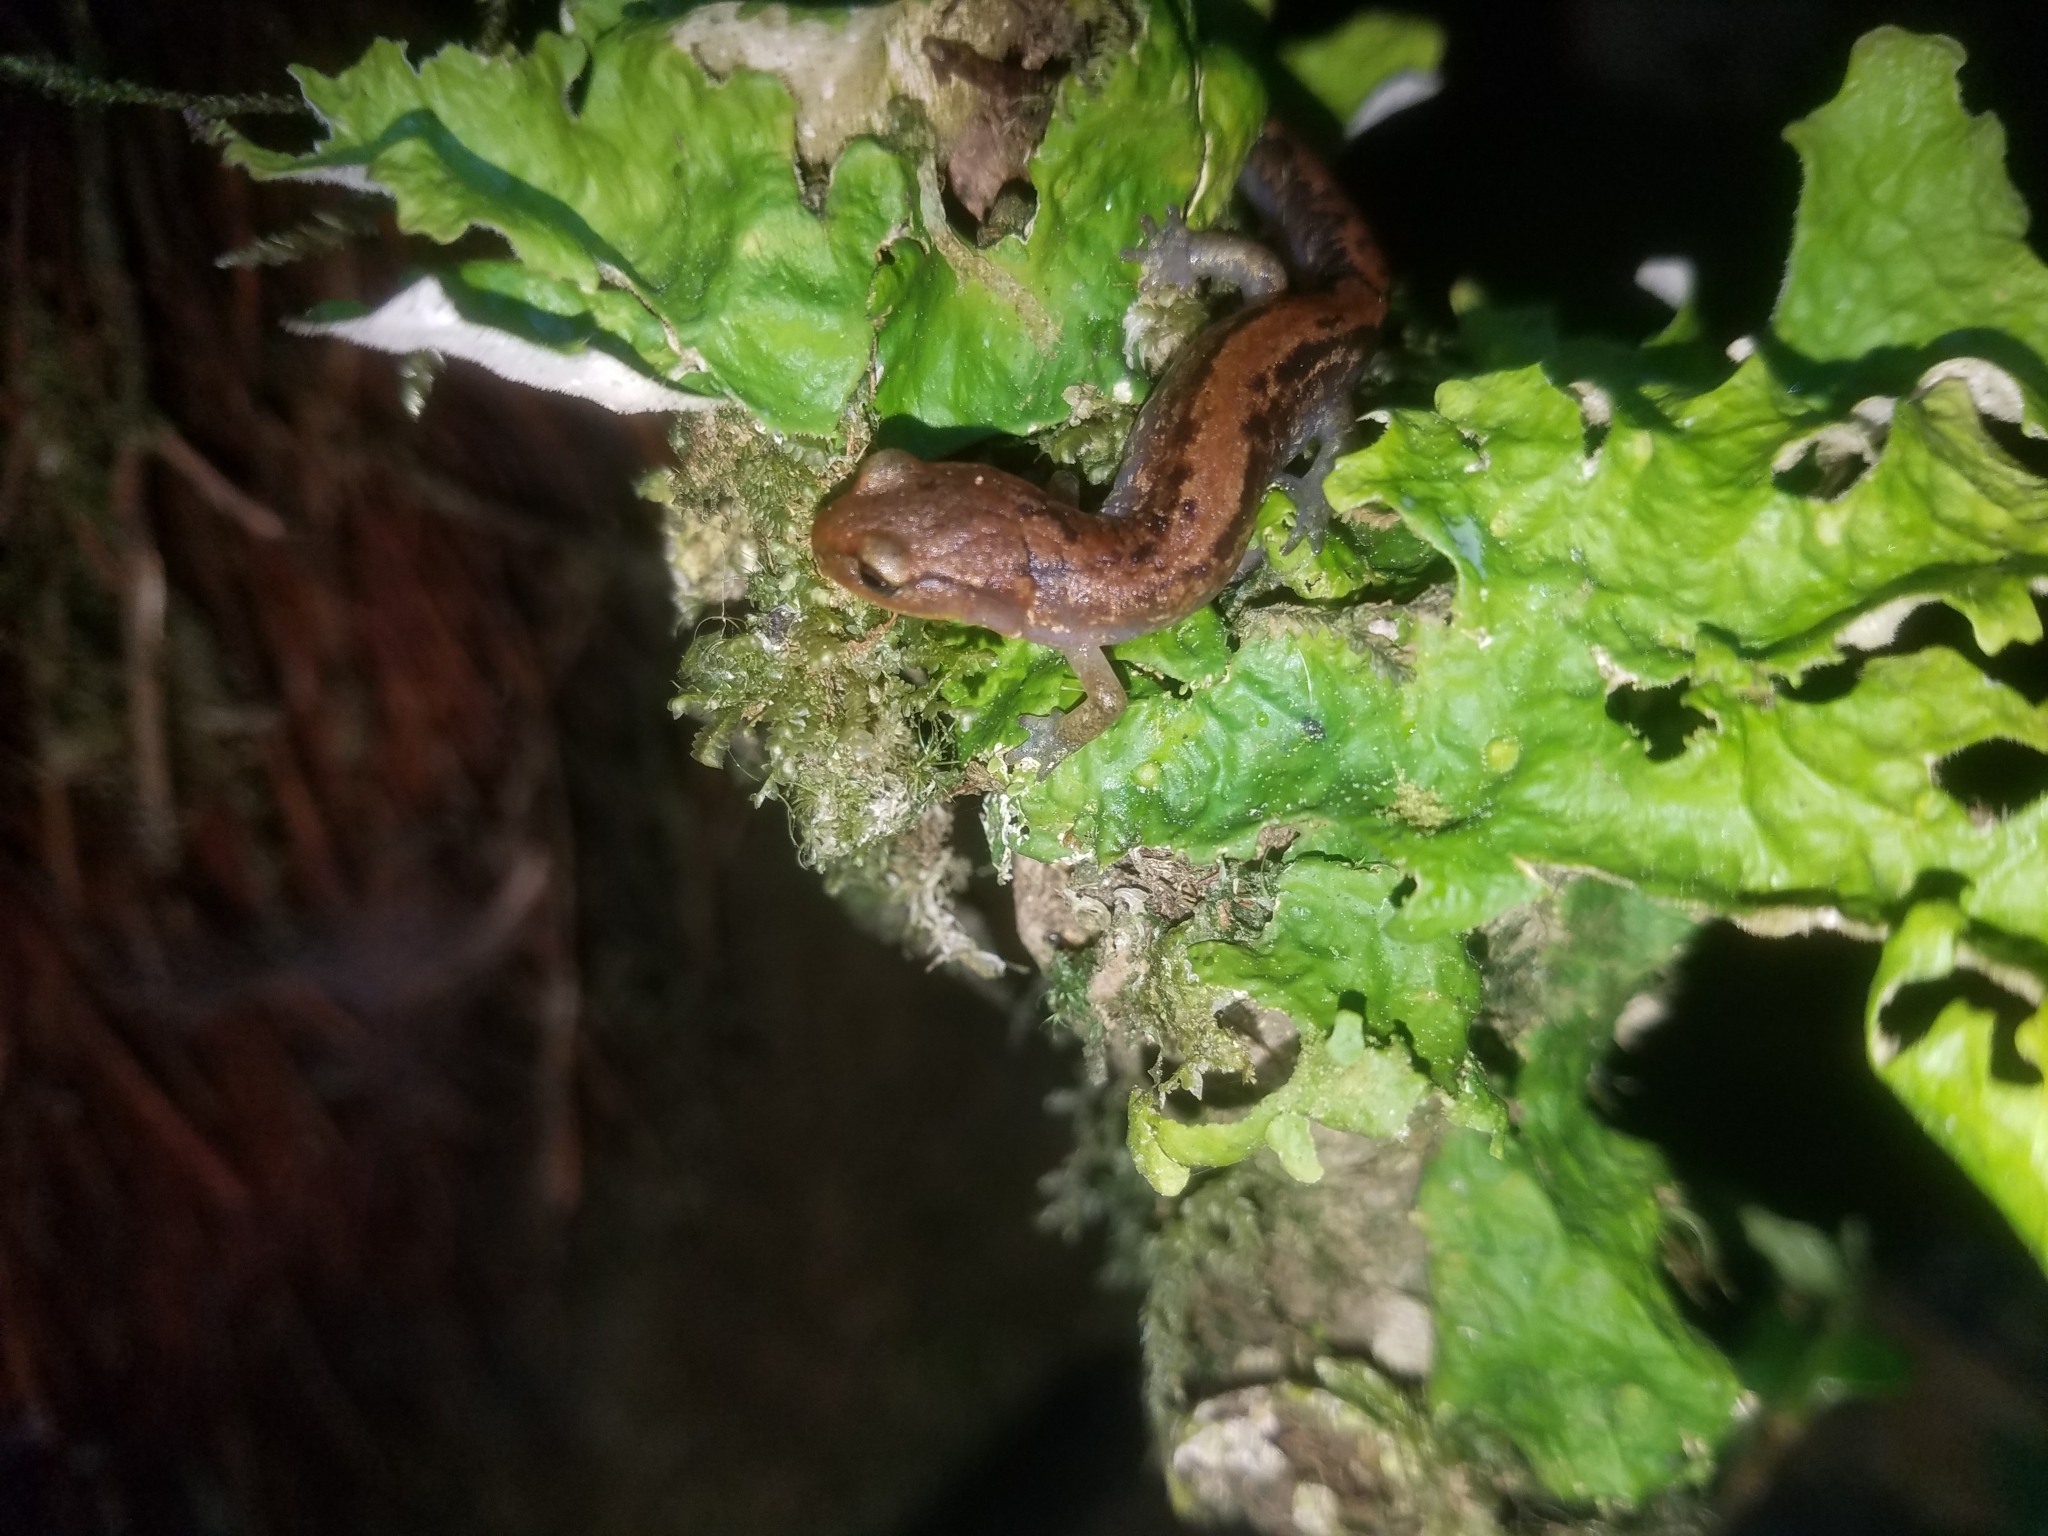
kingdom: Animalia
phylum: Chordata
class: Amphibia
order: Caudata
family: Plethodontidae
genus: Pseudoeurycea
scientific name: Pseudoeurycea juarezi
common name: Sierra juarez false brook salamander
